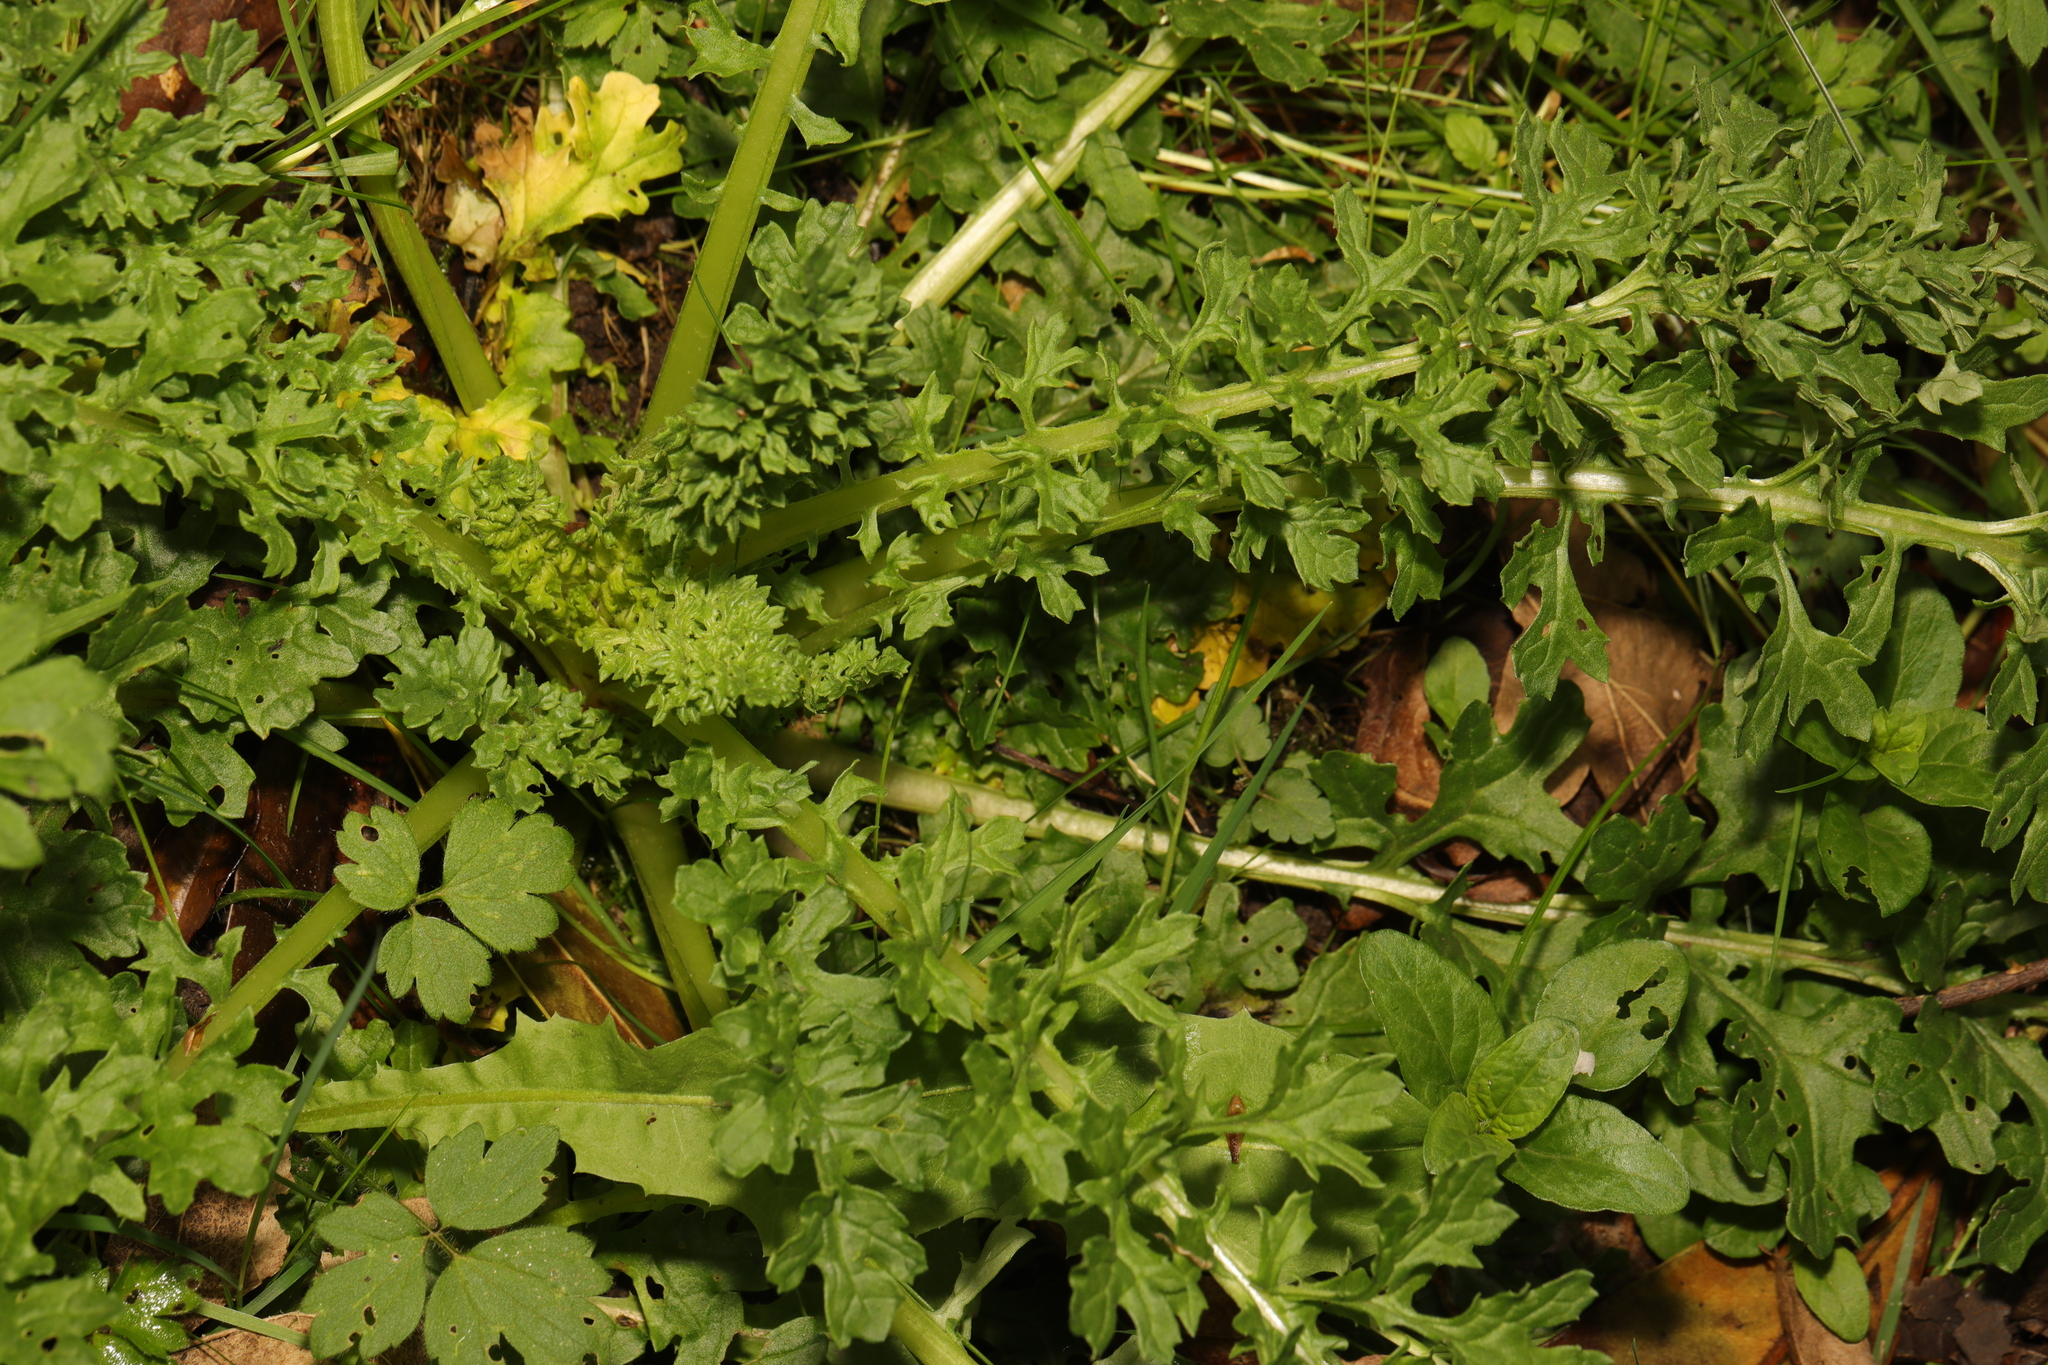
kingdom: Plantae
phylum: Tracheophyta
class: Magnoliopsida
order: Asterales
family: Asteraceae
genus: Jacobaea
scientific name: Jacobaea vulgaris
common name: Stinking willie
